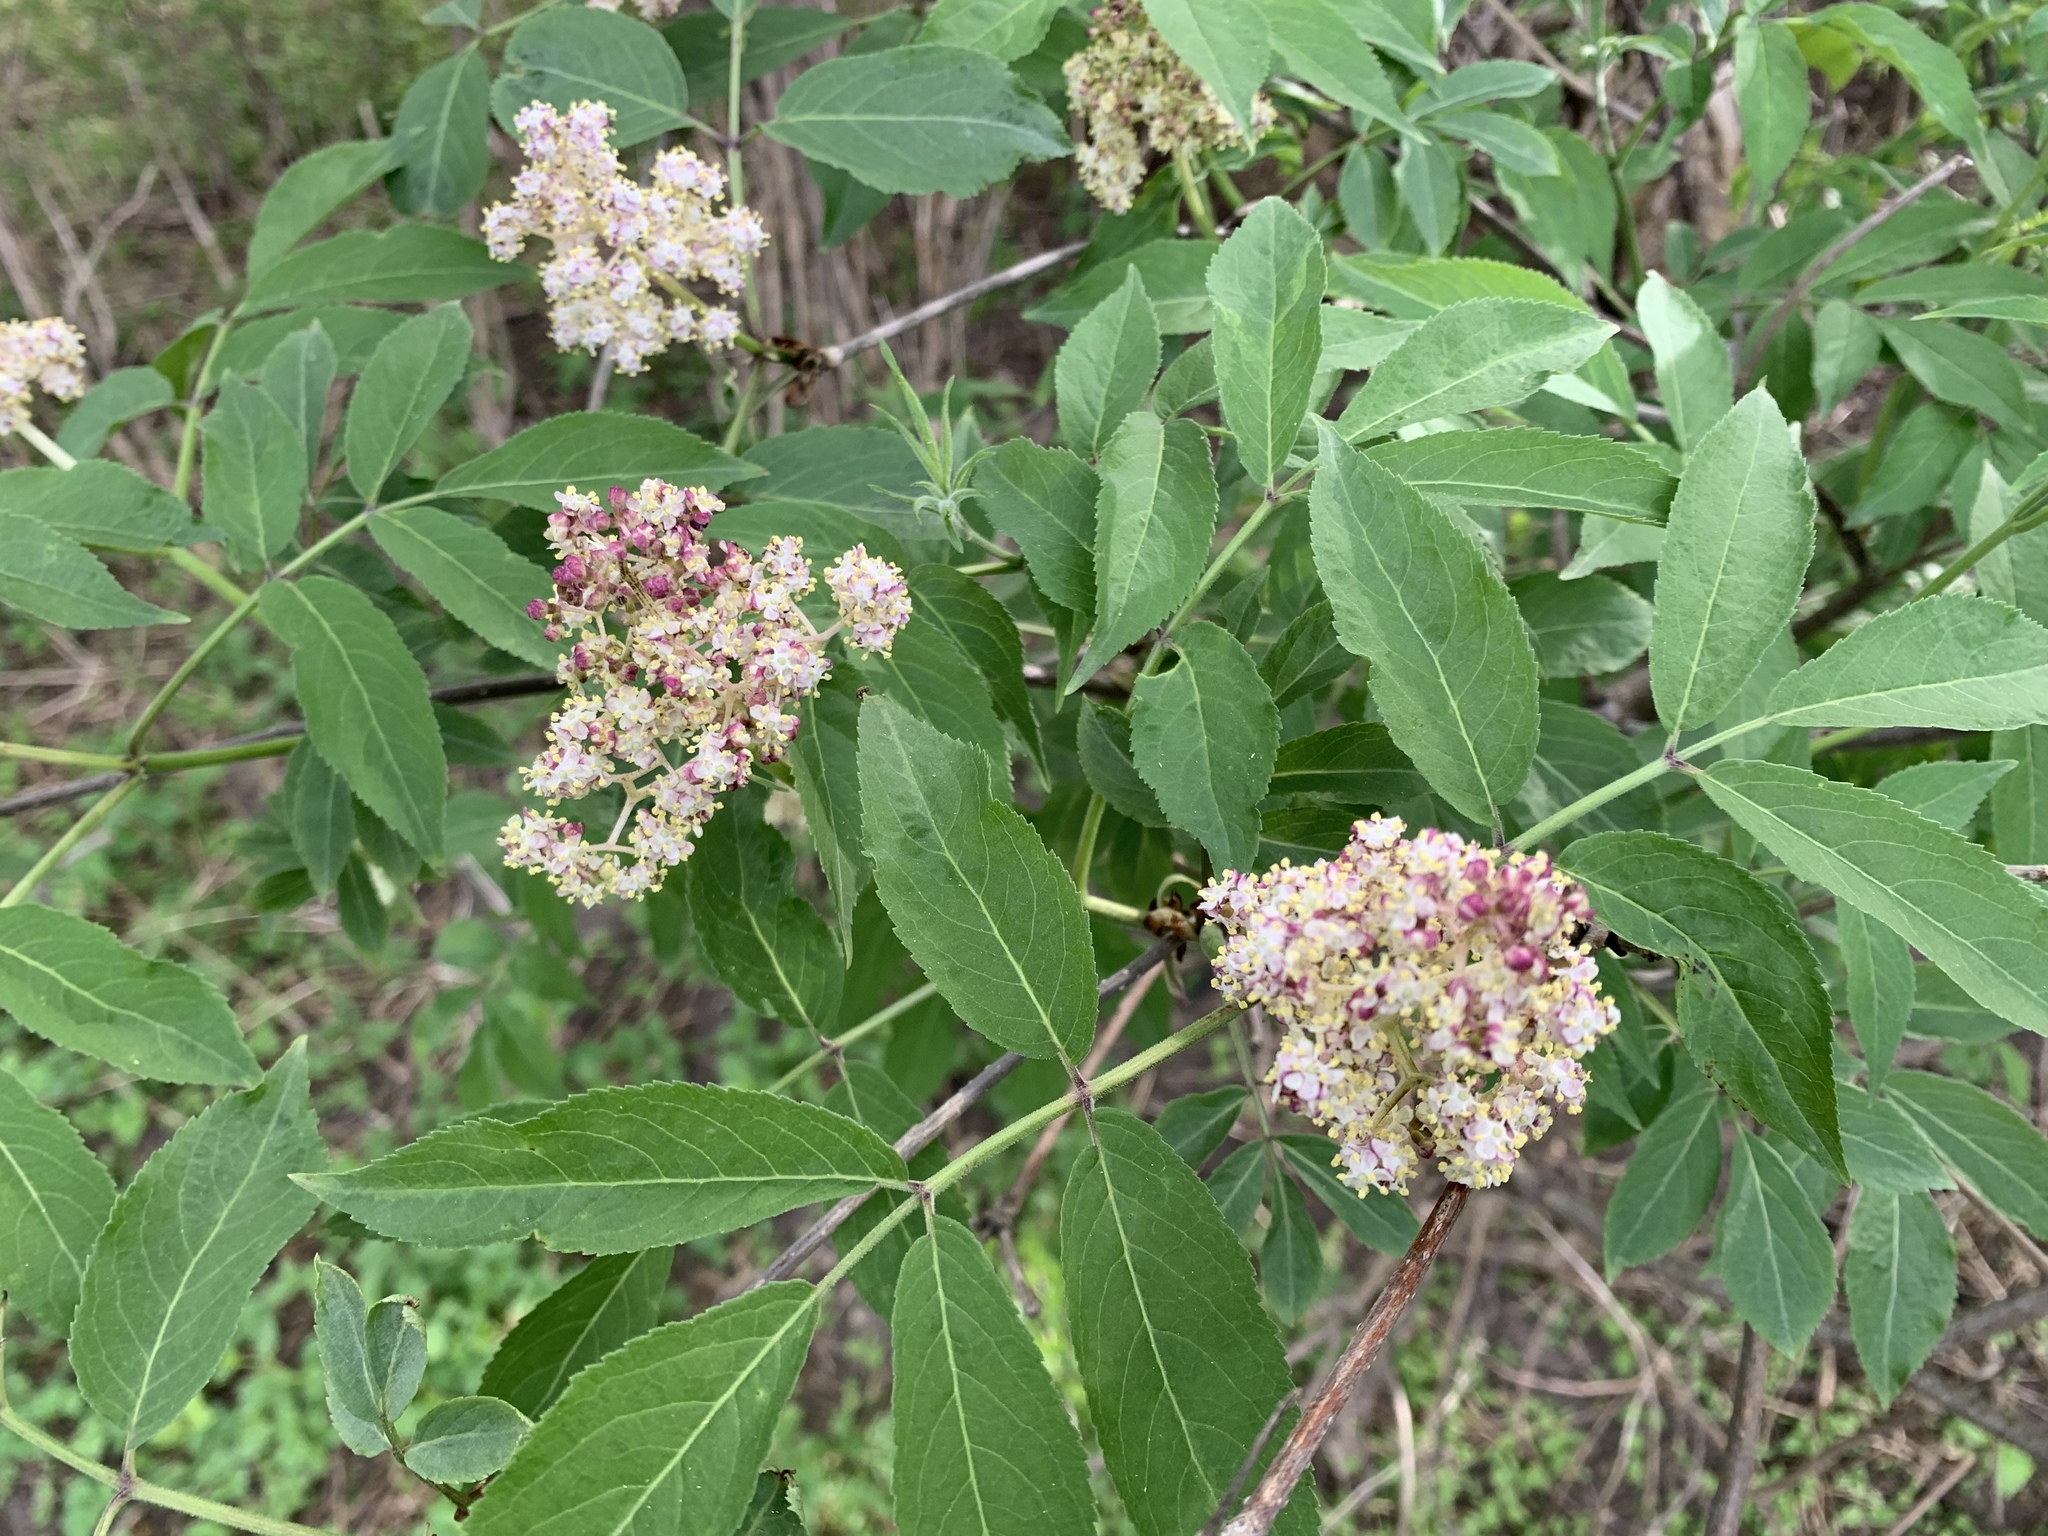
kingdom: Plantae
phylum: Tracheophyta
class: Magnoliopsida
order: Dipsacales
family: Viburnaceae
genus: Sambucus
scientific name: Sambucus racemosa
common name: Red-berried elder
